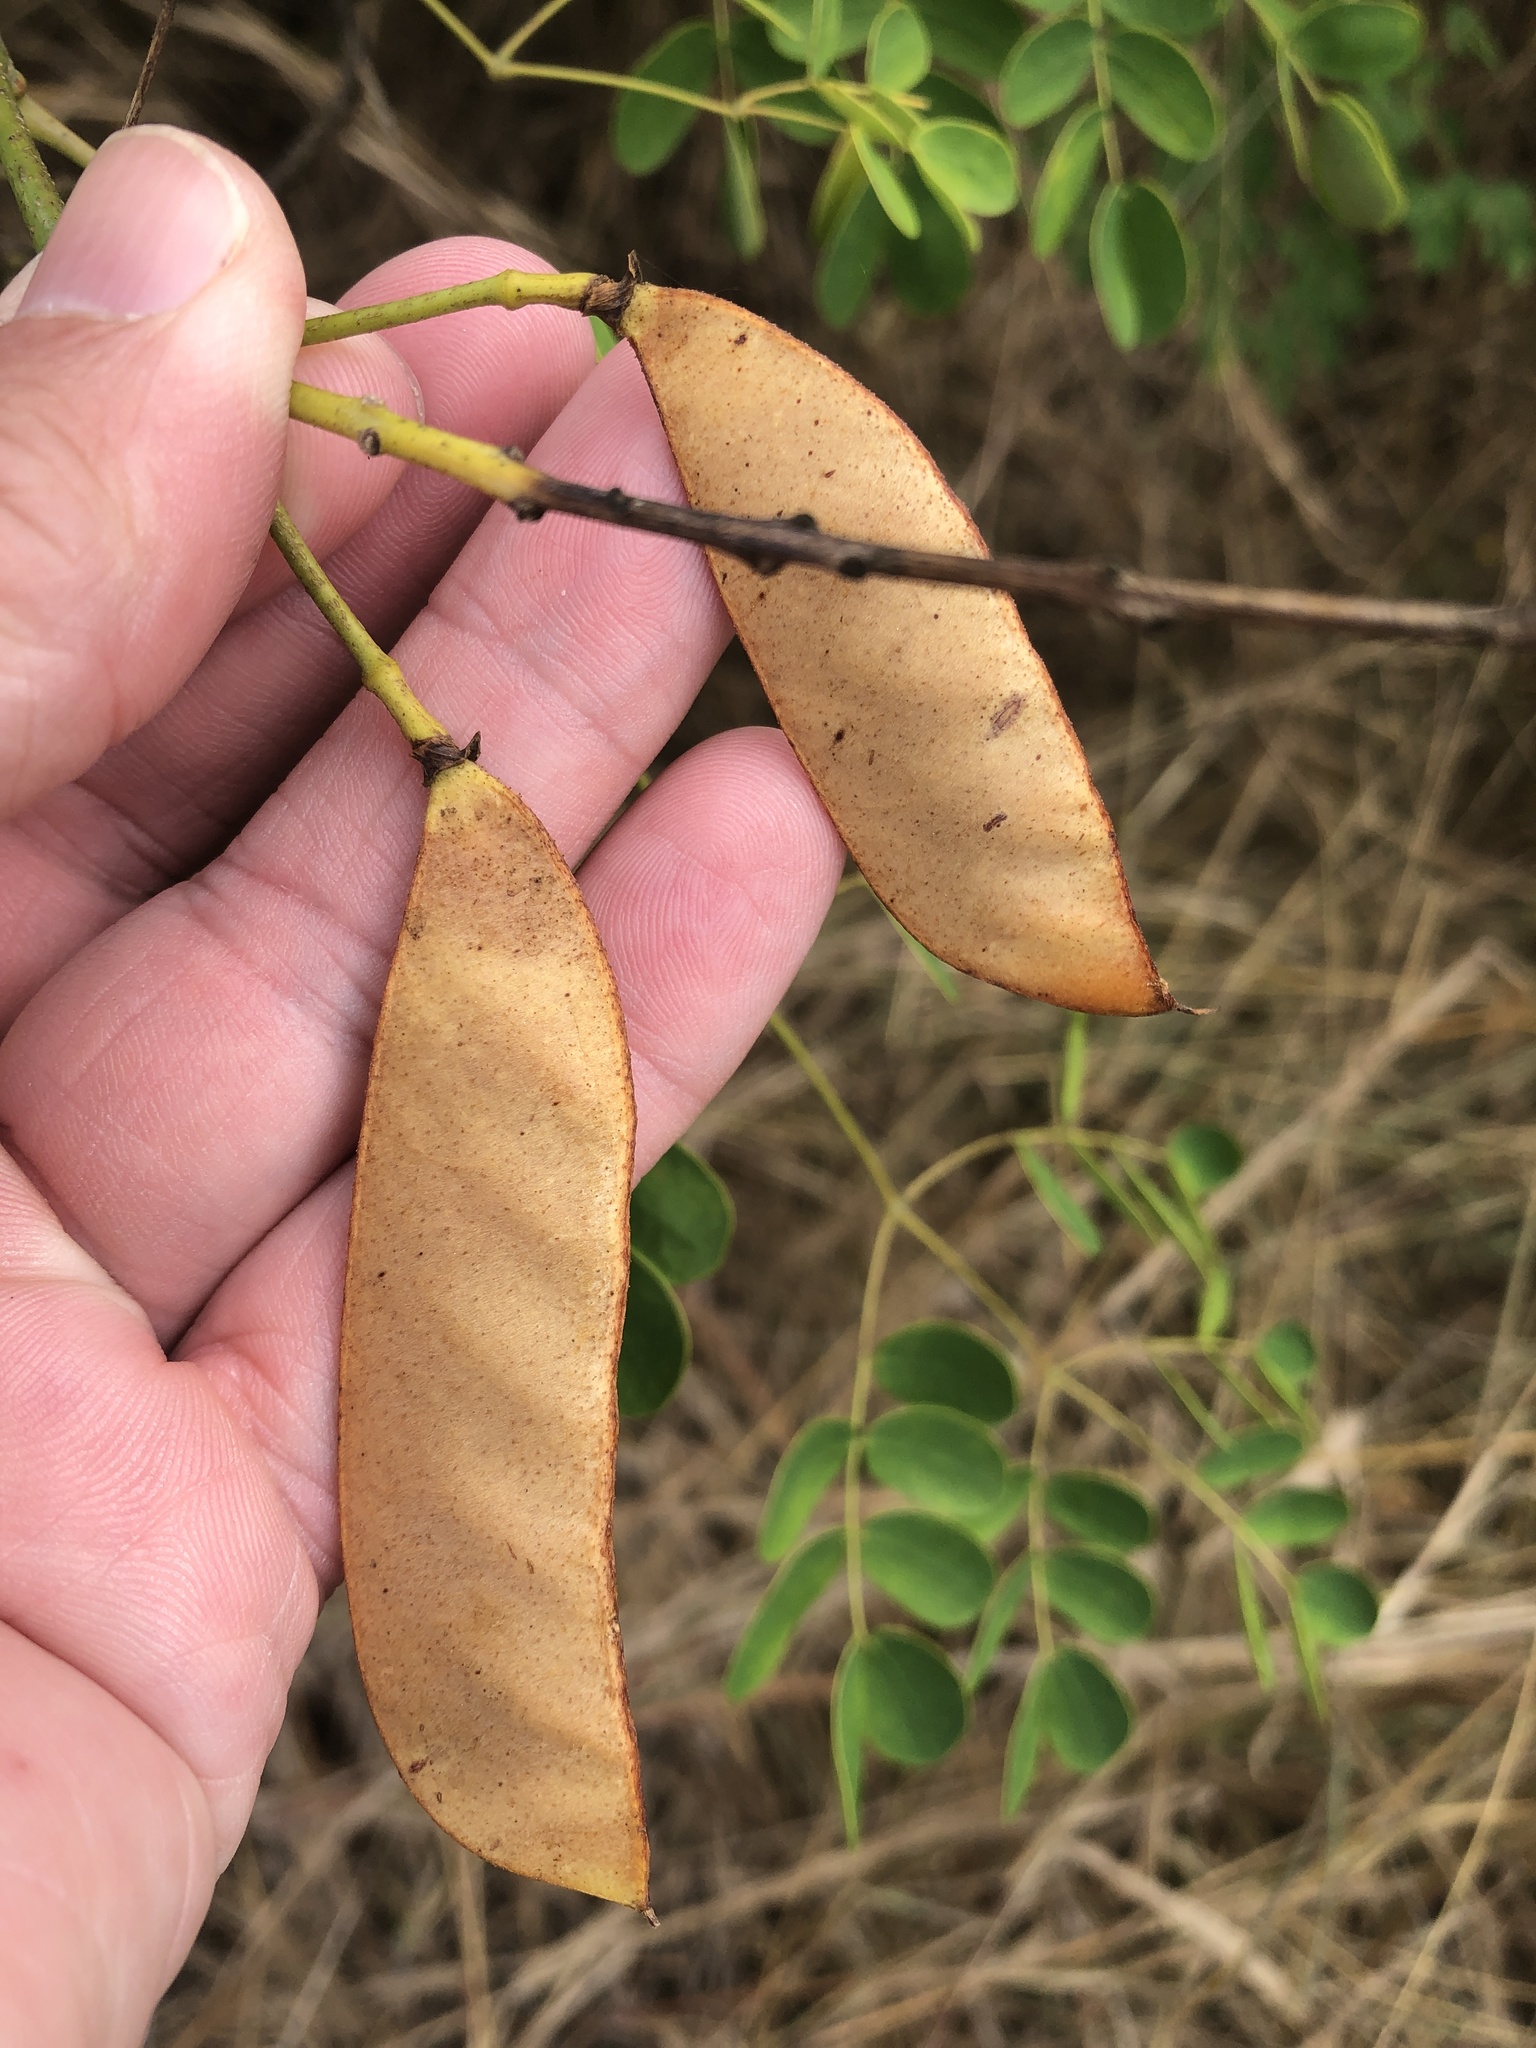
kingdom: Plantae
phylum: Tracheophyta
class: Magnoliopsida
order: Fabales
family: Fabaceae
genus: Erythrostemon
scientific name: Erythrostemon mexicanus
